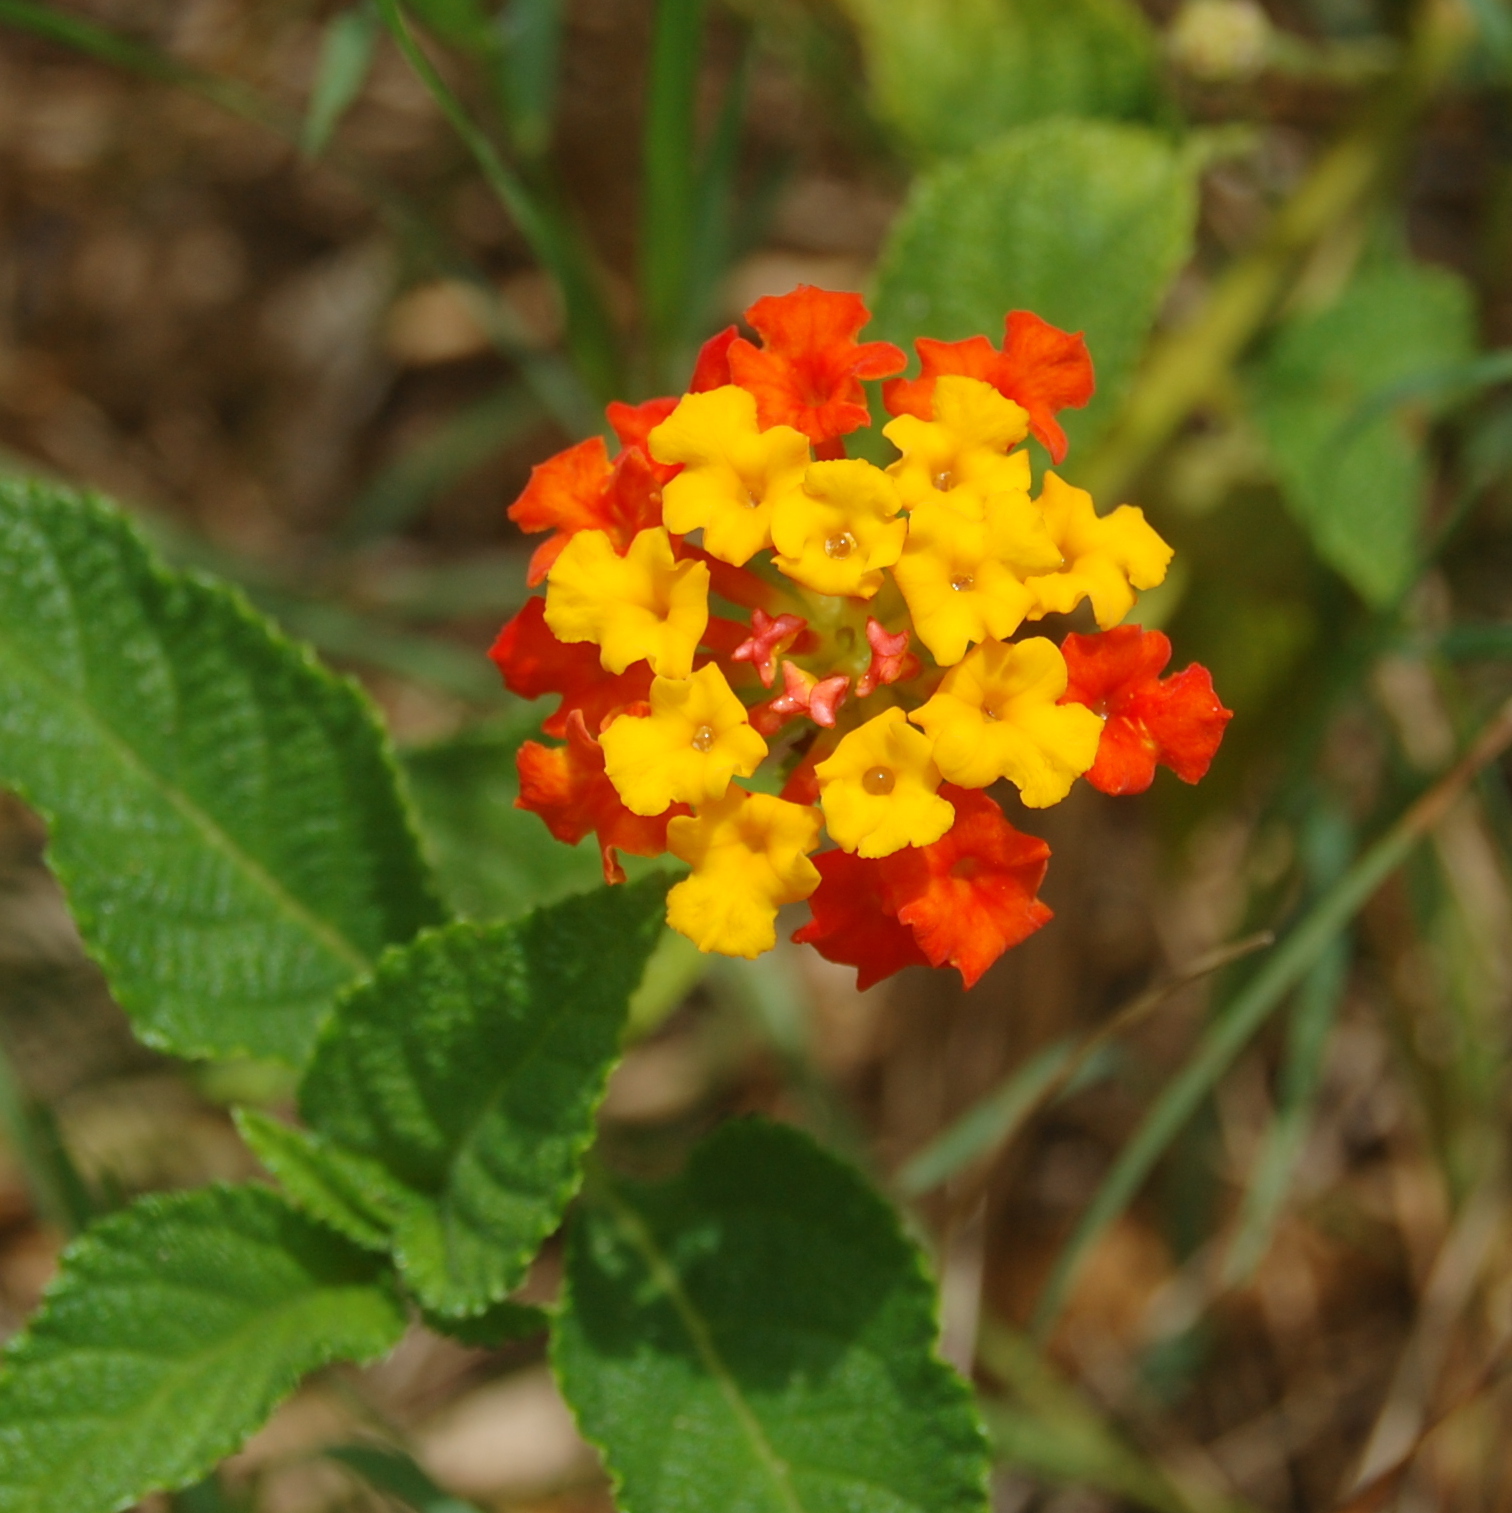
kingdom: Plantae
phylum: Tracheophyta
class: Magnoliopsida
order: Lamiales
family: Verbenaceae
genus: Lantana
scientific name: Lantana camara
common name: Lantana
